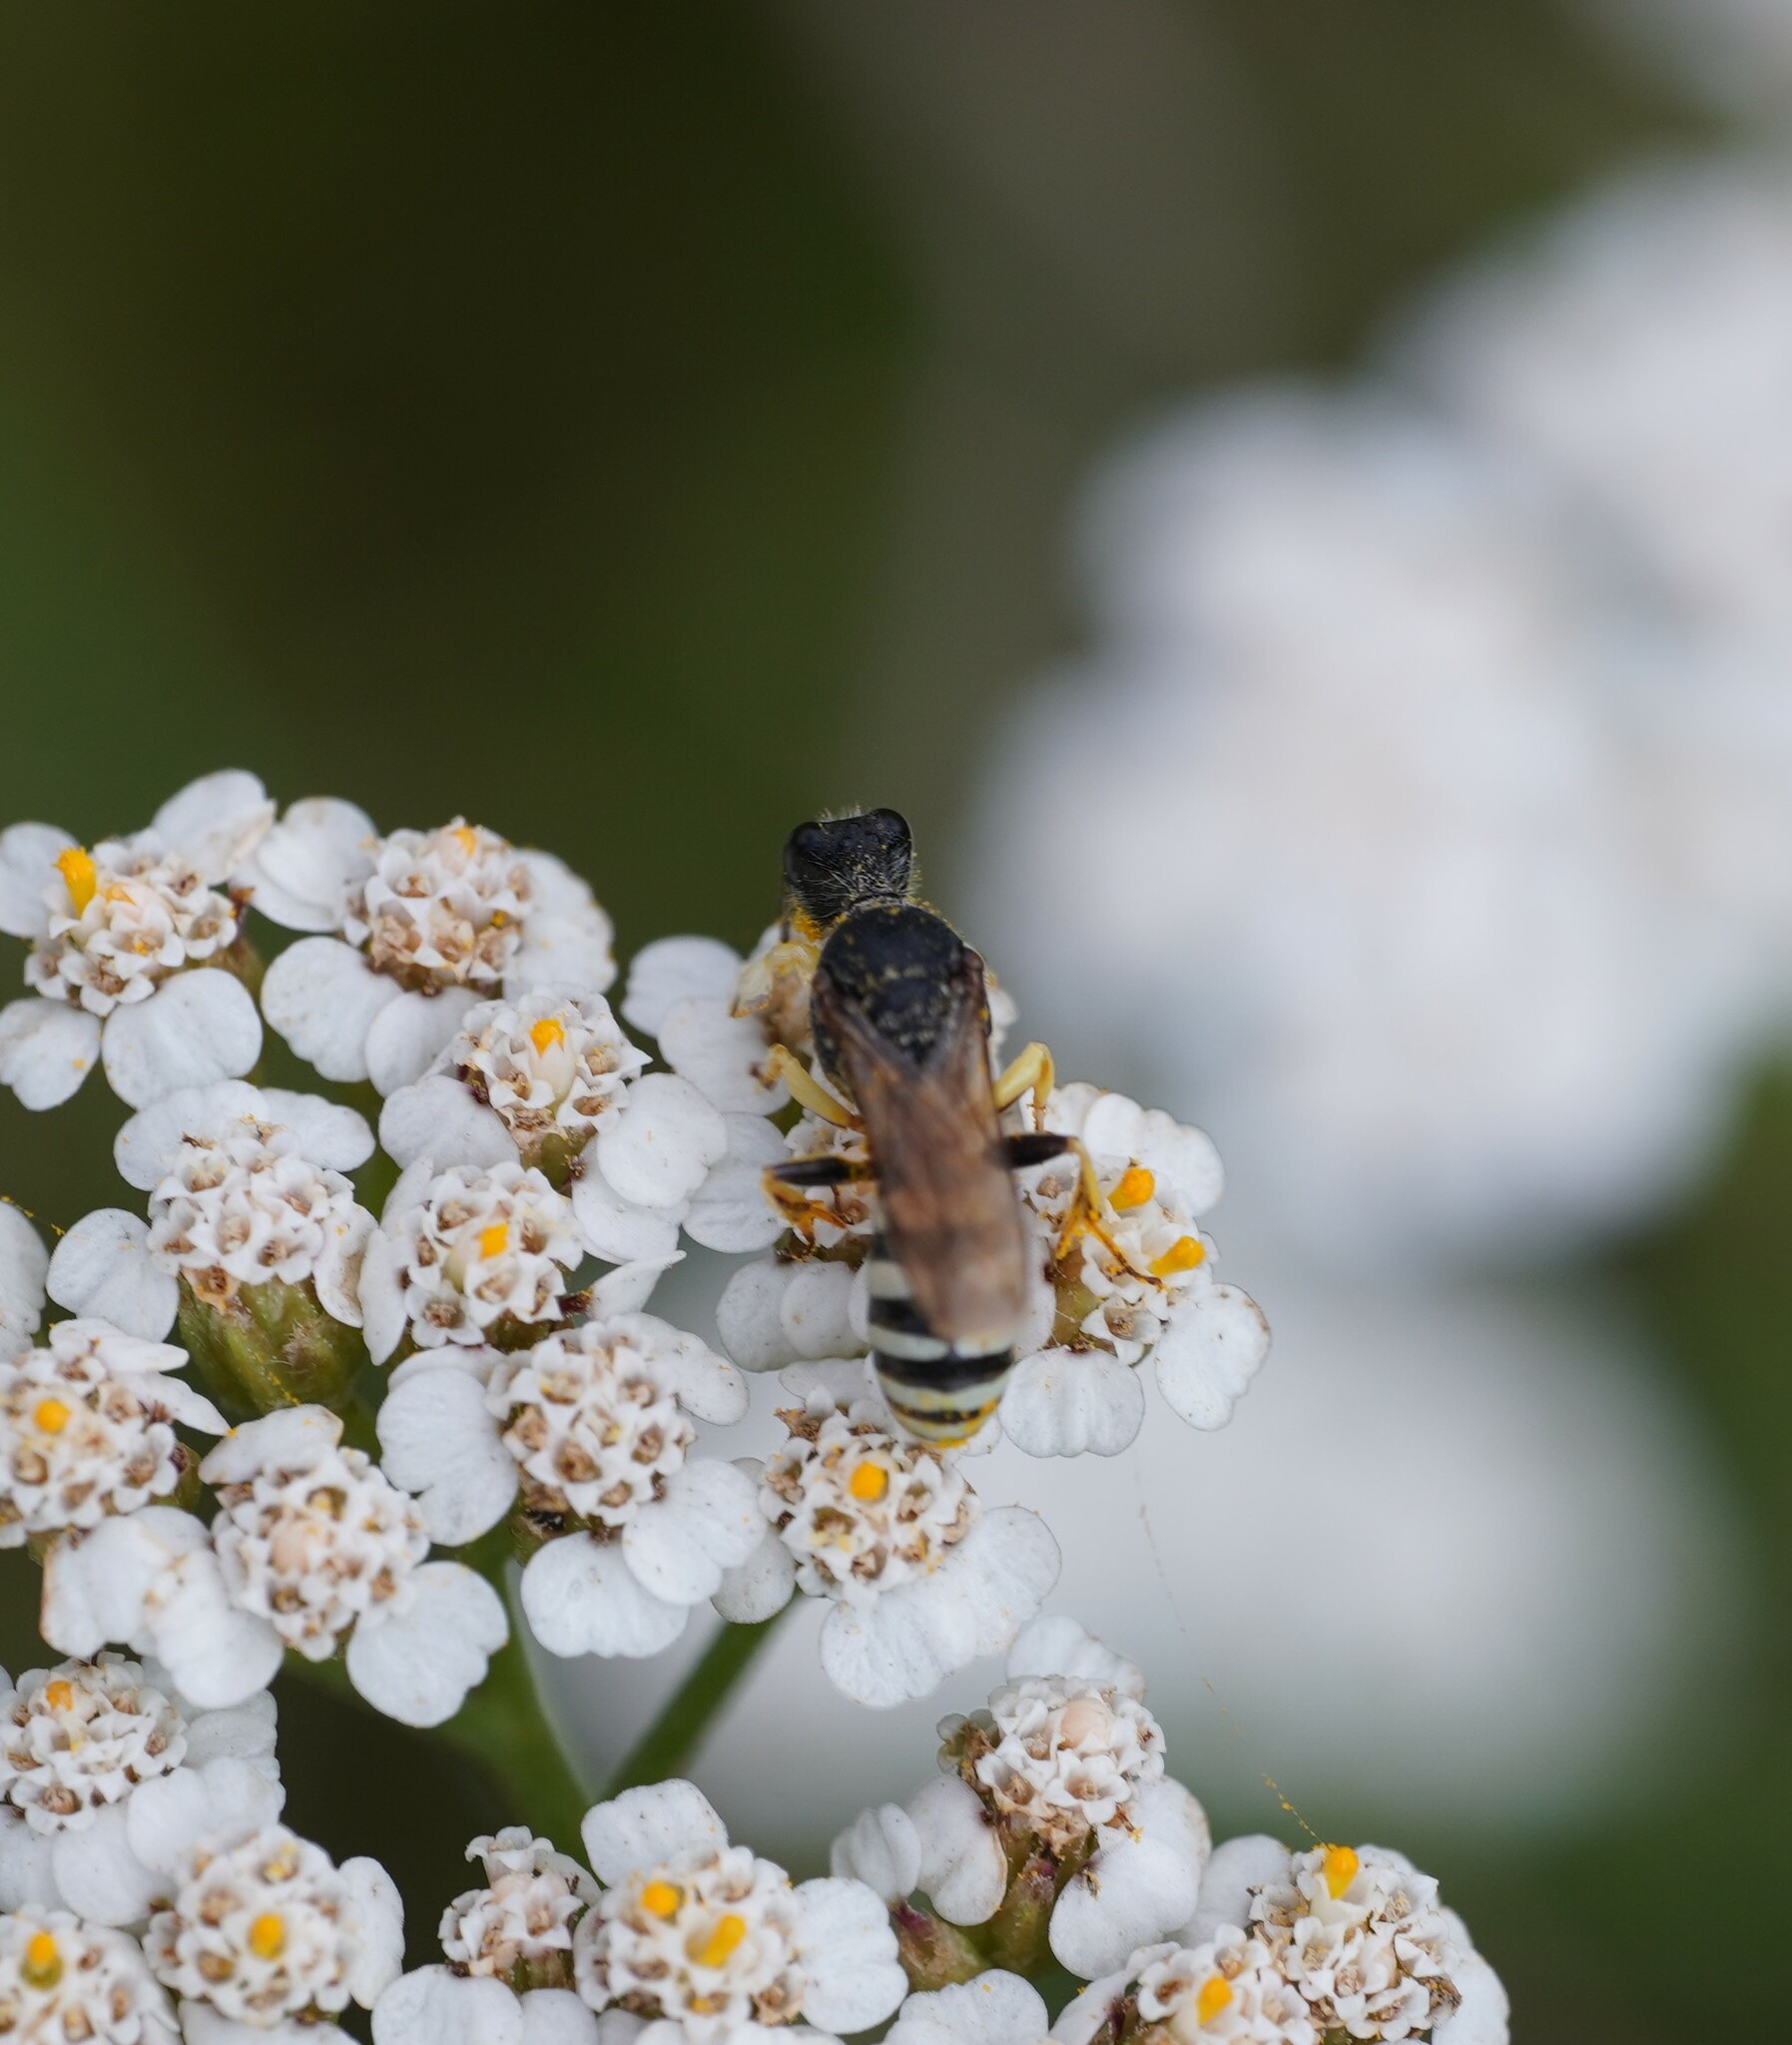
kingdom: Animalia
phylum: Arthropoda
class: Insecta
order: Hymenoptera
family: Crabronidae
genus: Lestica
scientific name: Lestica clypeata
